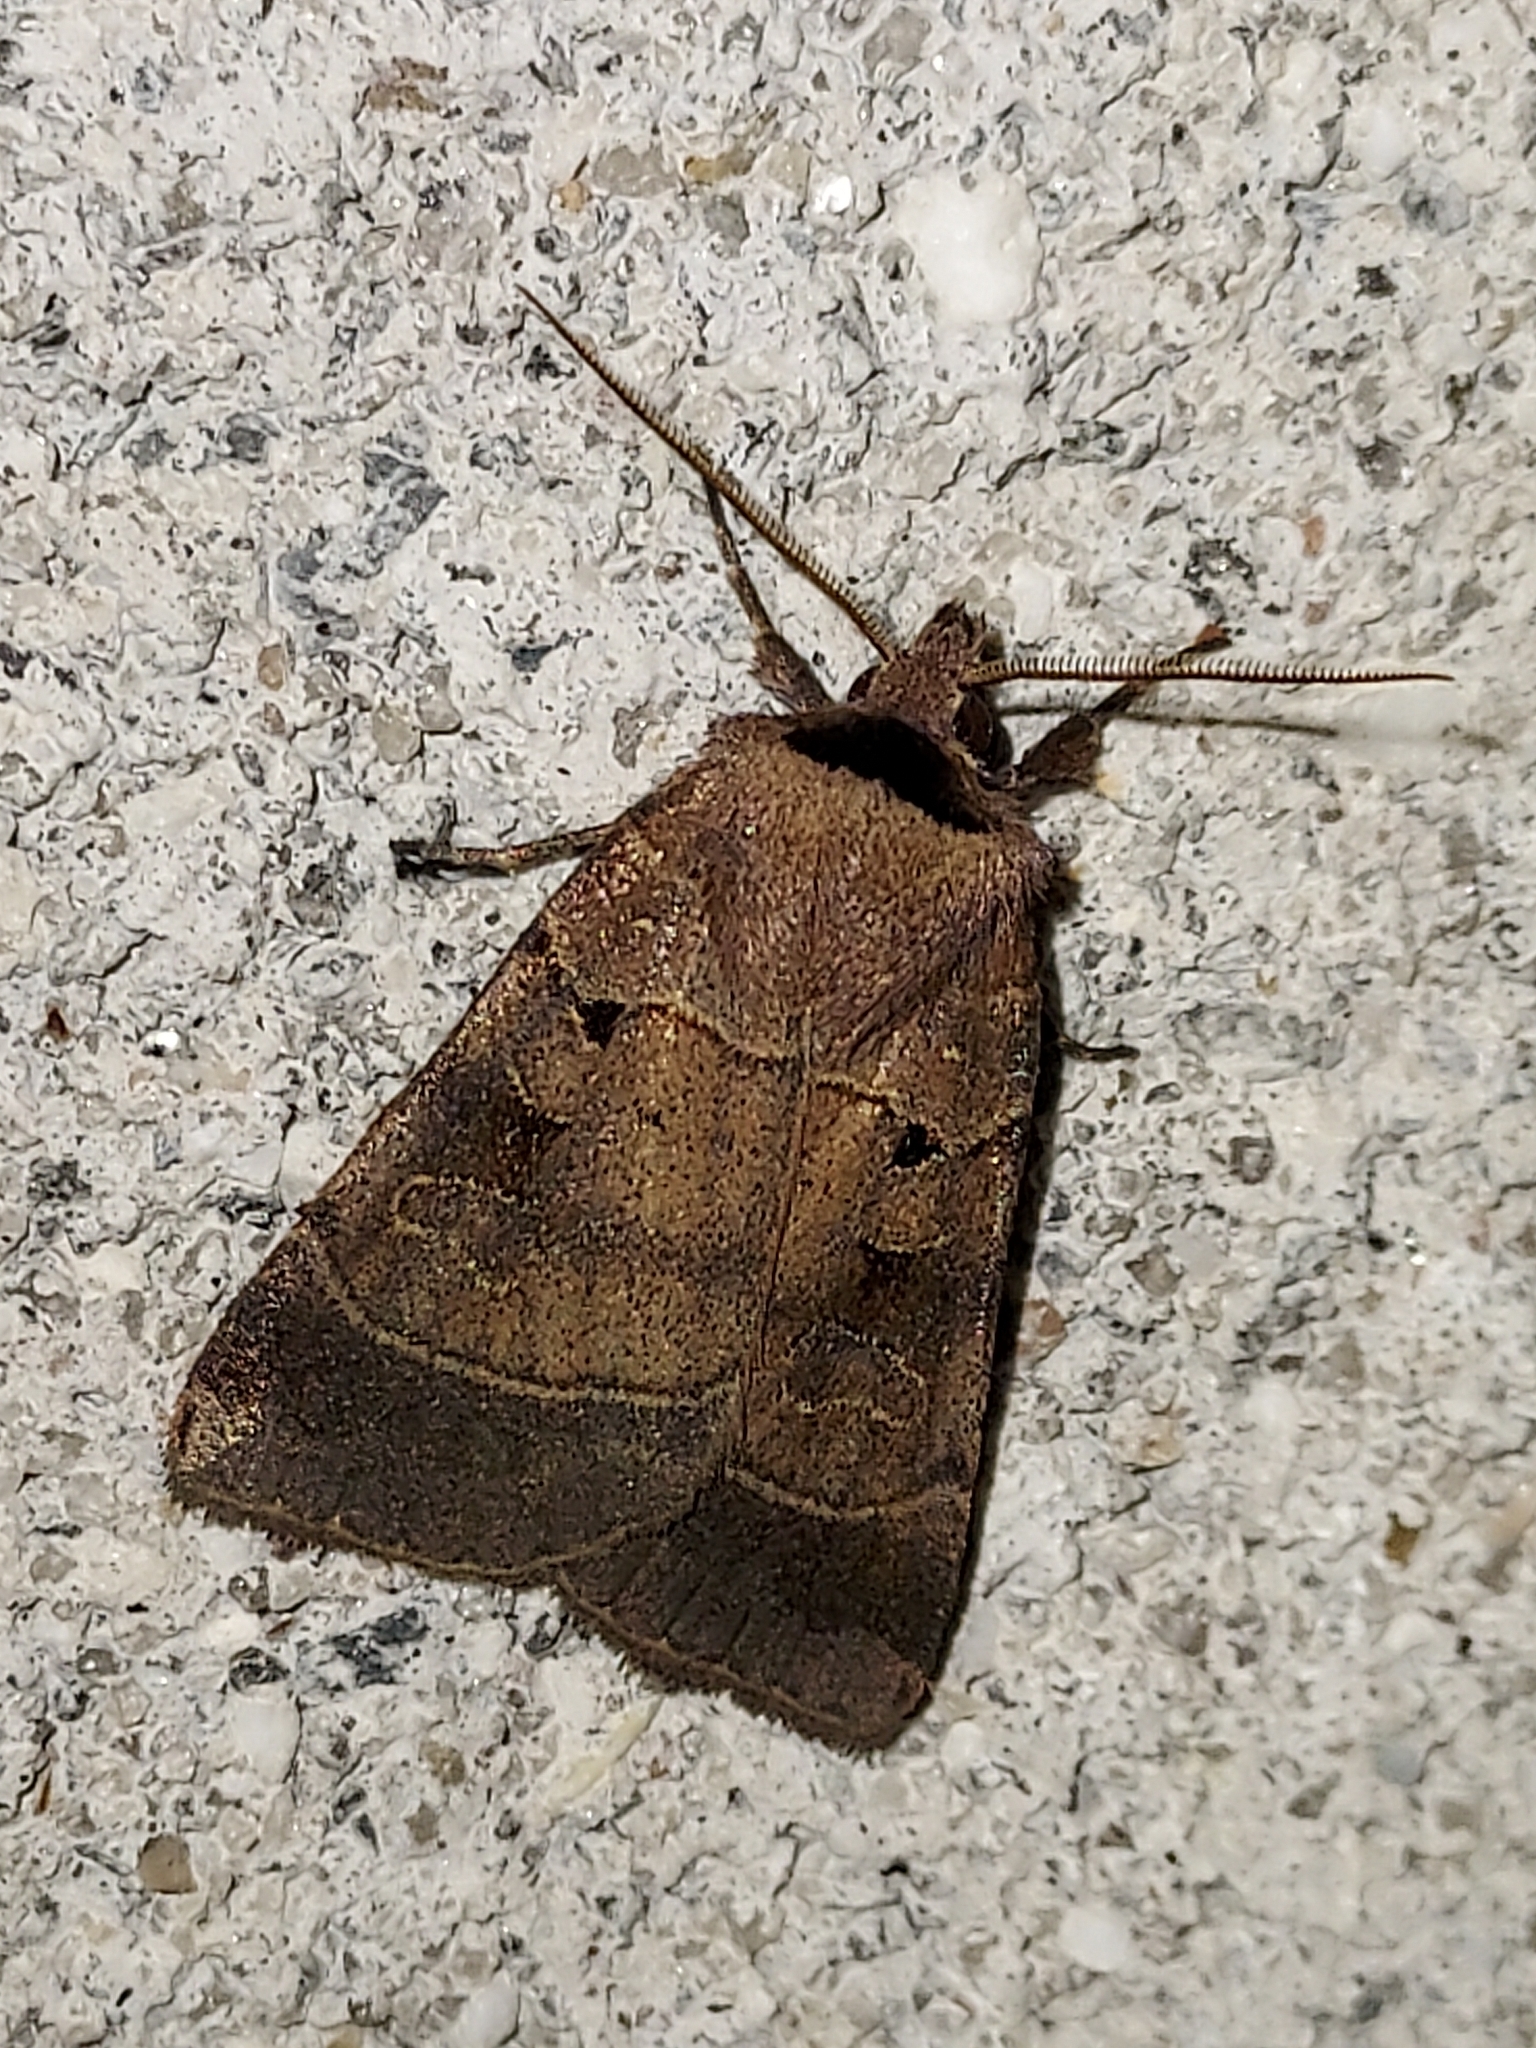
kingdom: Animalia
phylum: Arthropoda
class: Insecta
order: Lepidoptera
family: Noctuidae
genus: Agnorisma
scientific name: Agnorisma badinodis
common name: Pale-banded dart
